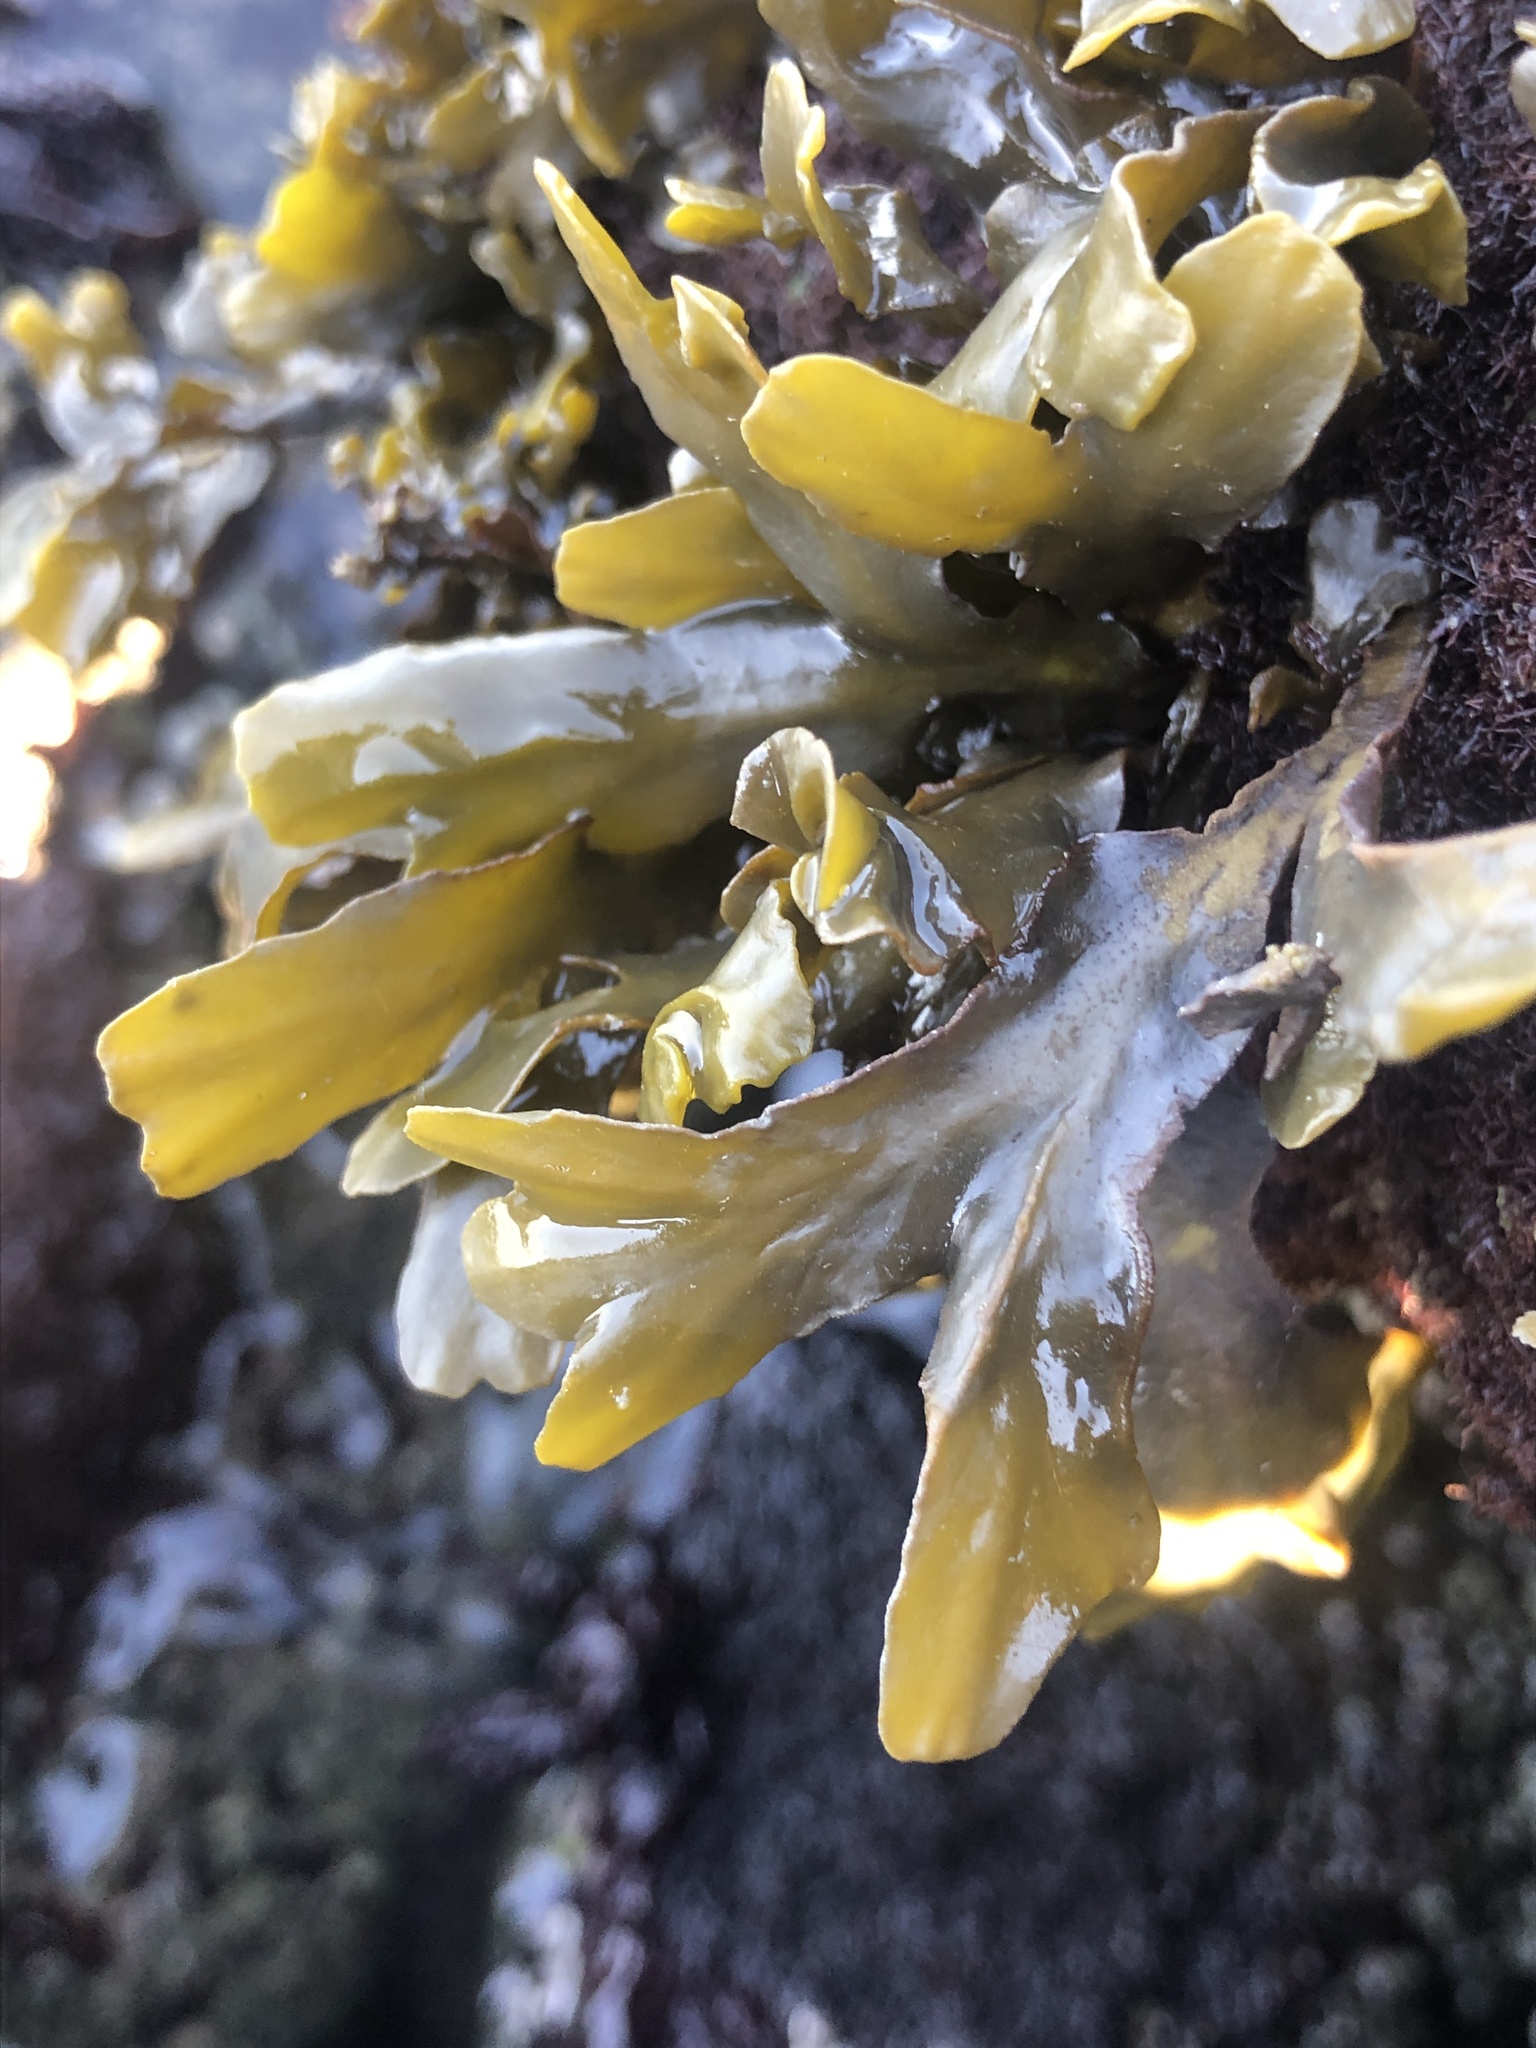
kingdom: Chromista
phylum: Ochrophyta
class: Phaeophyceae
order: Fucales
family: Fucaceae
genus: Fucus
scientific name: Fucus distichus
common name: Rockweed
